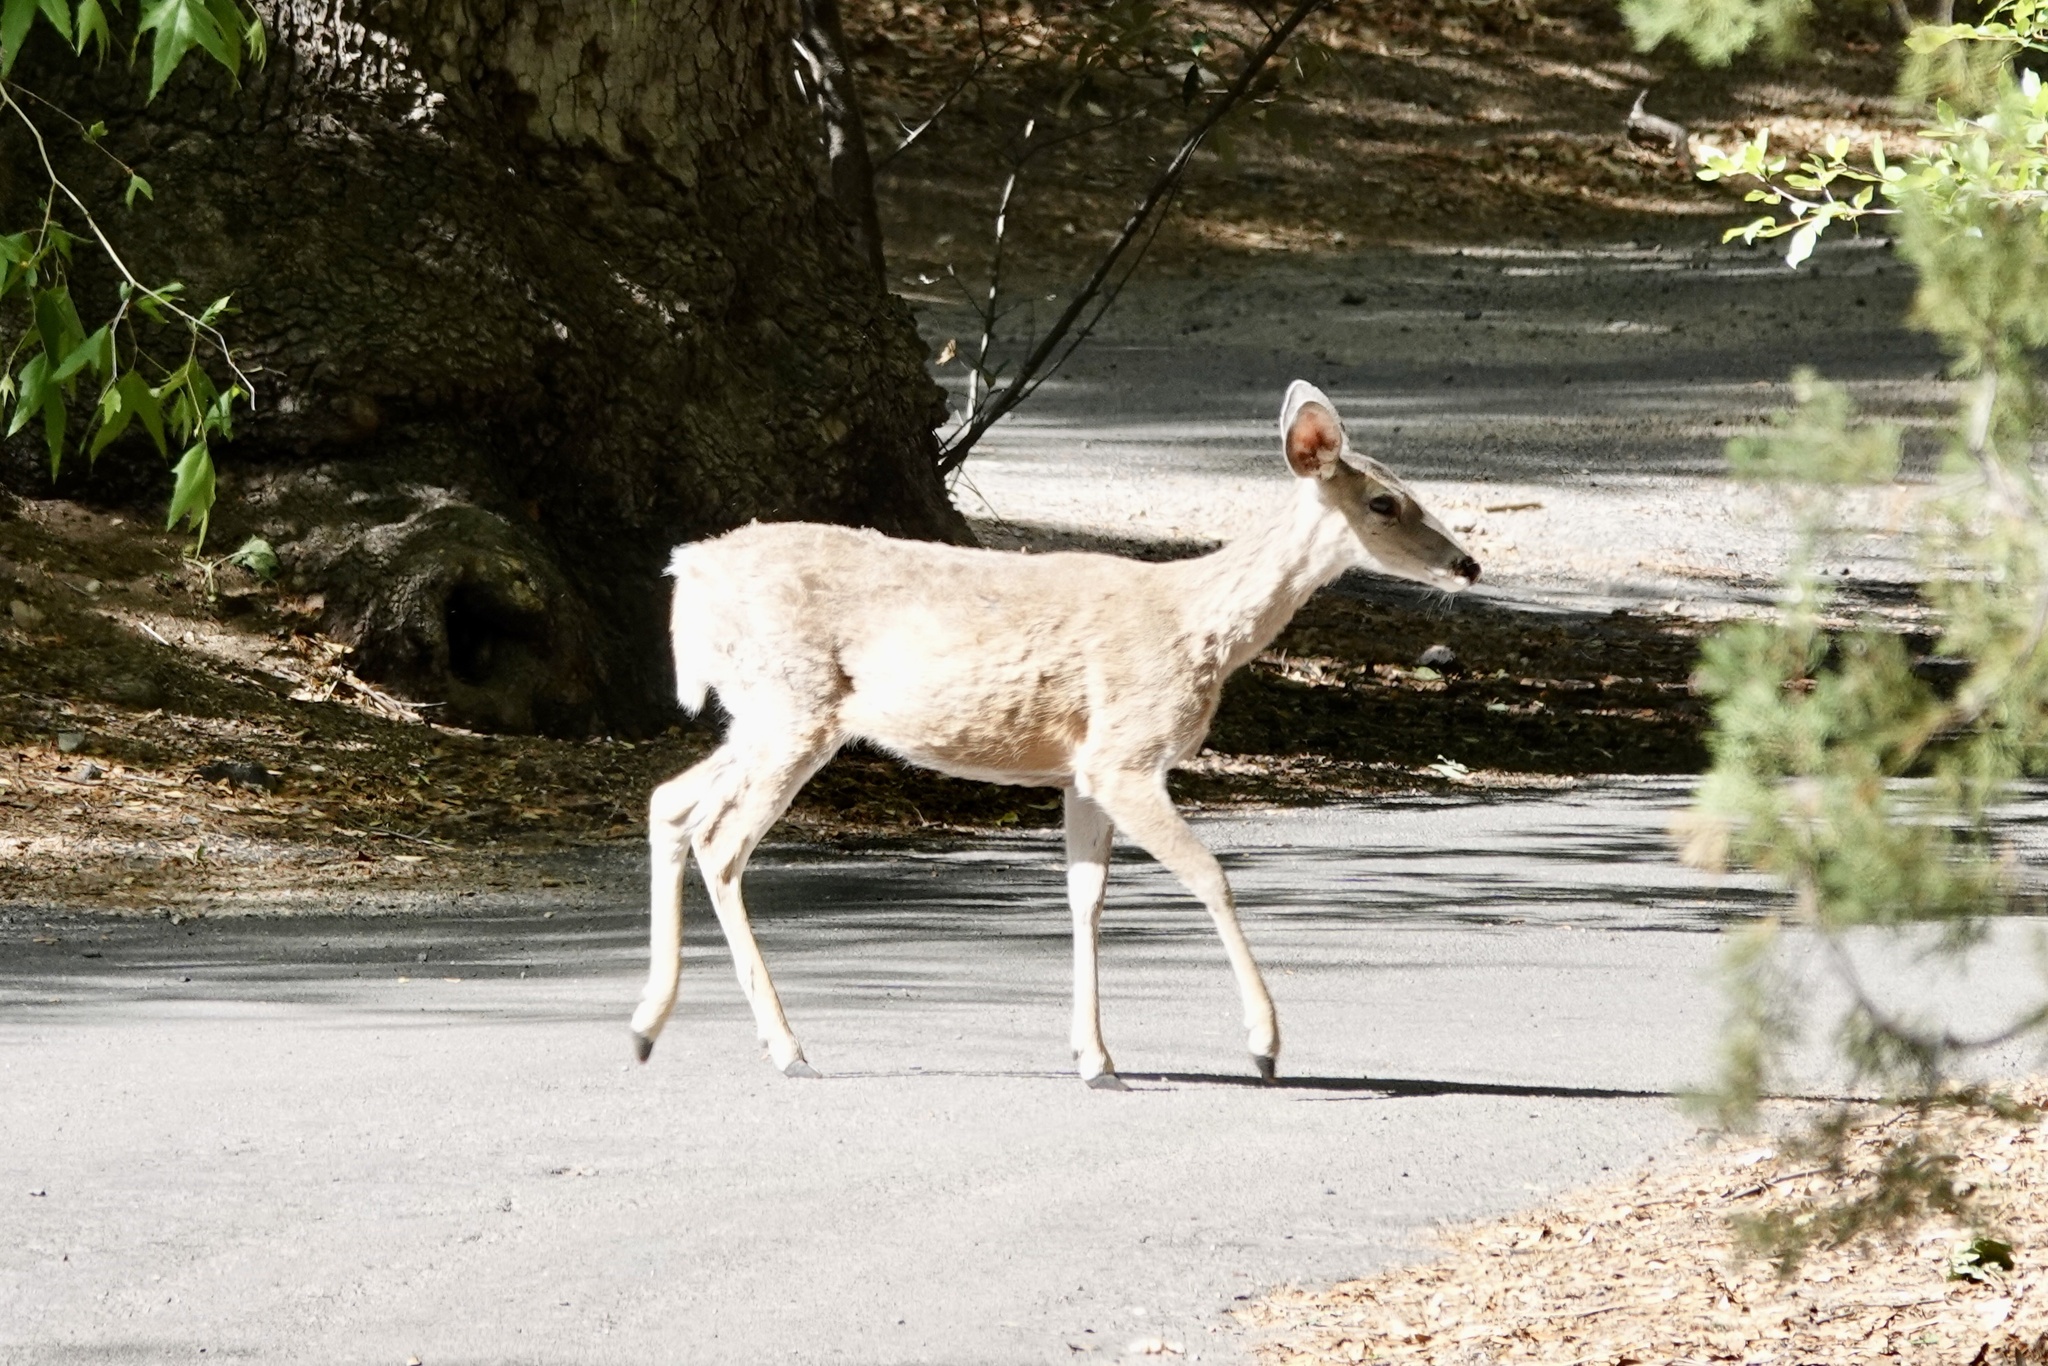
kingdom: Animalia
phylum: Chordata
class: Mammalia
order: Artiodactyla
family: Cervidae
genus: Odocoileus
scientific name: Odocoileus virginianus
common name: White-tailed deer
